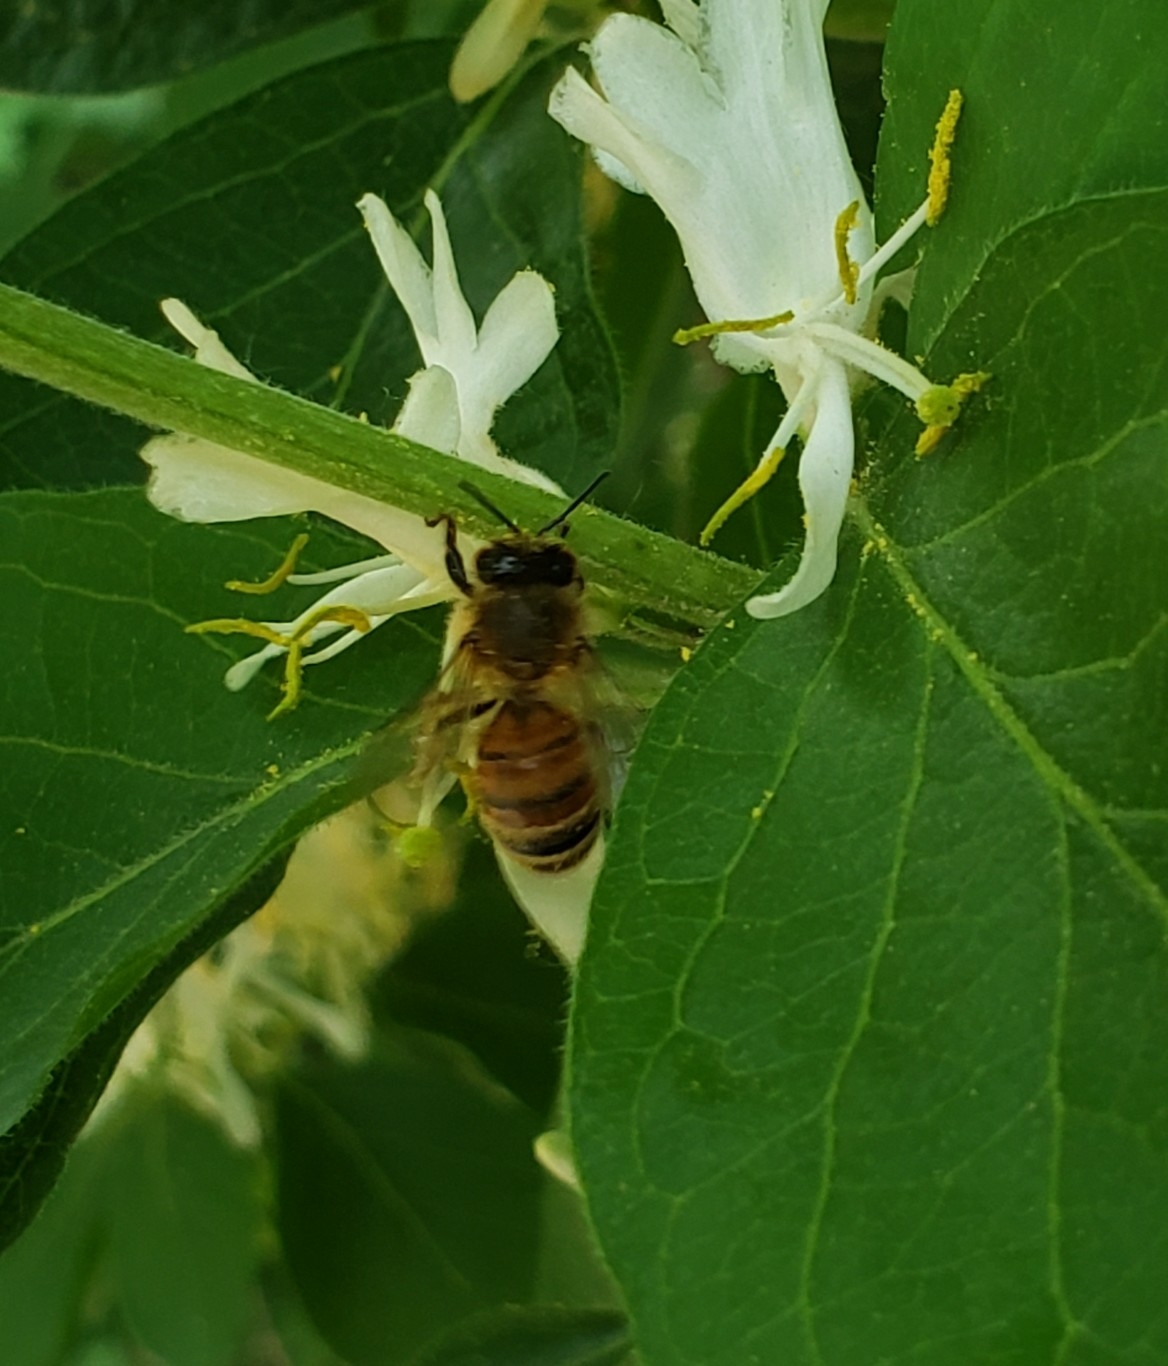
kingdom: Animalia
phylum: Arthropoda
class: Insecta
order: Hymenoptera
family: Apidae
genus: Apis
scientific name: Apis mellifera
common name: Honey bee
